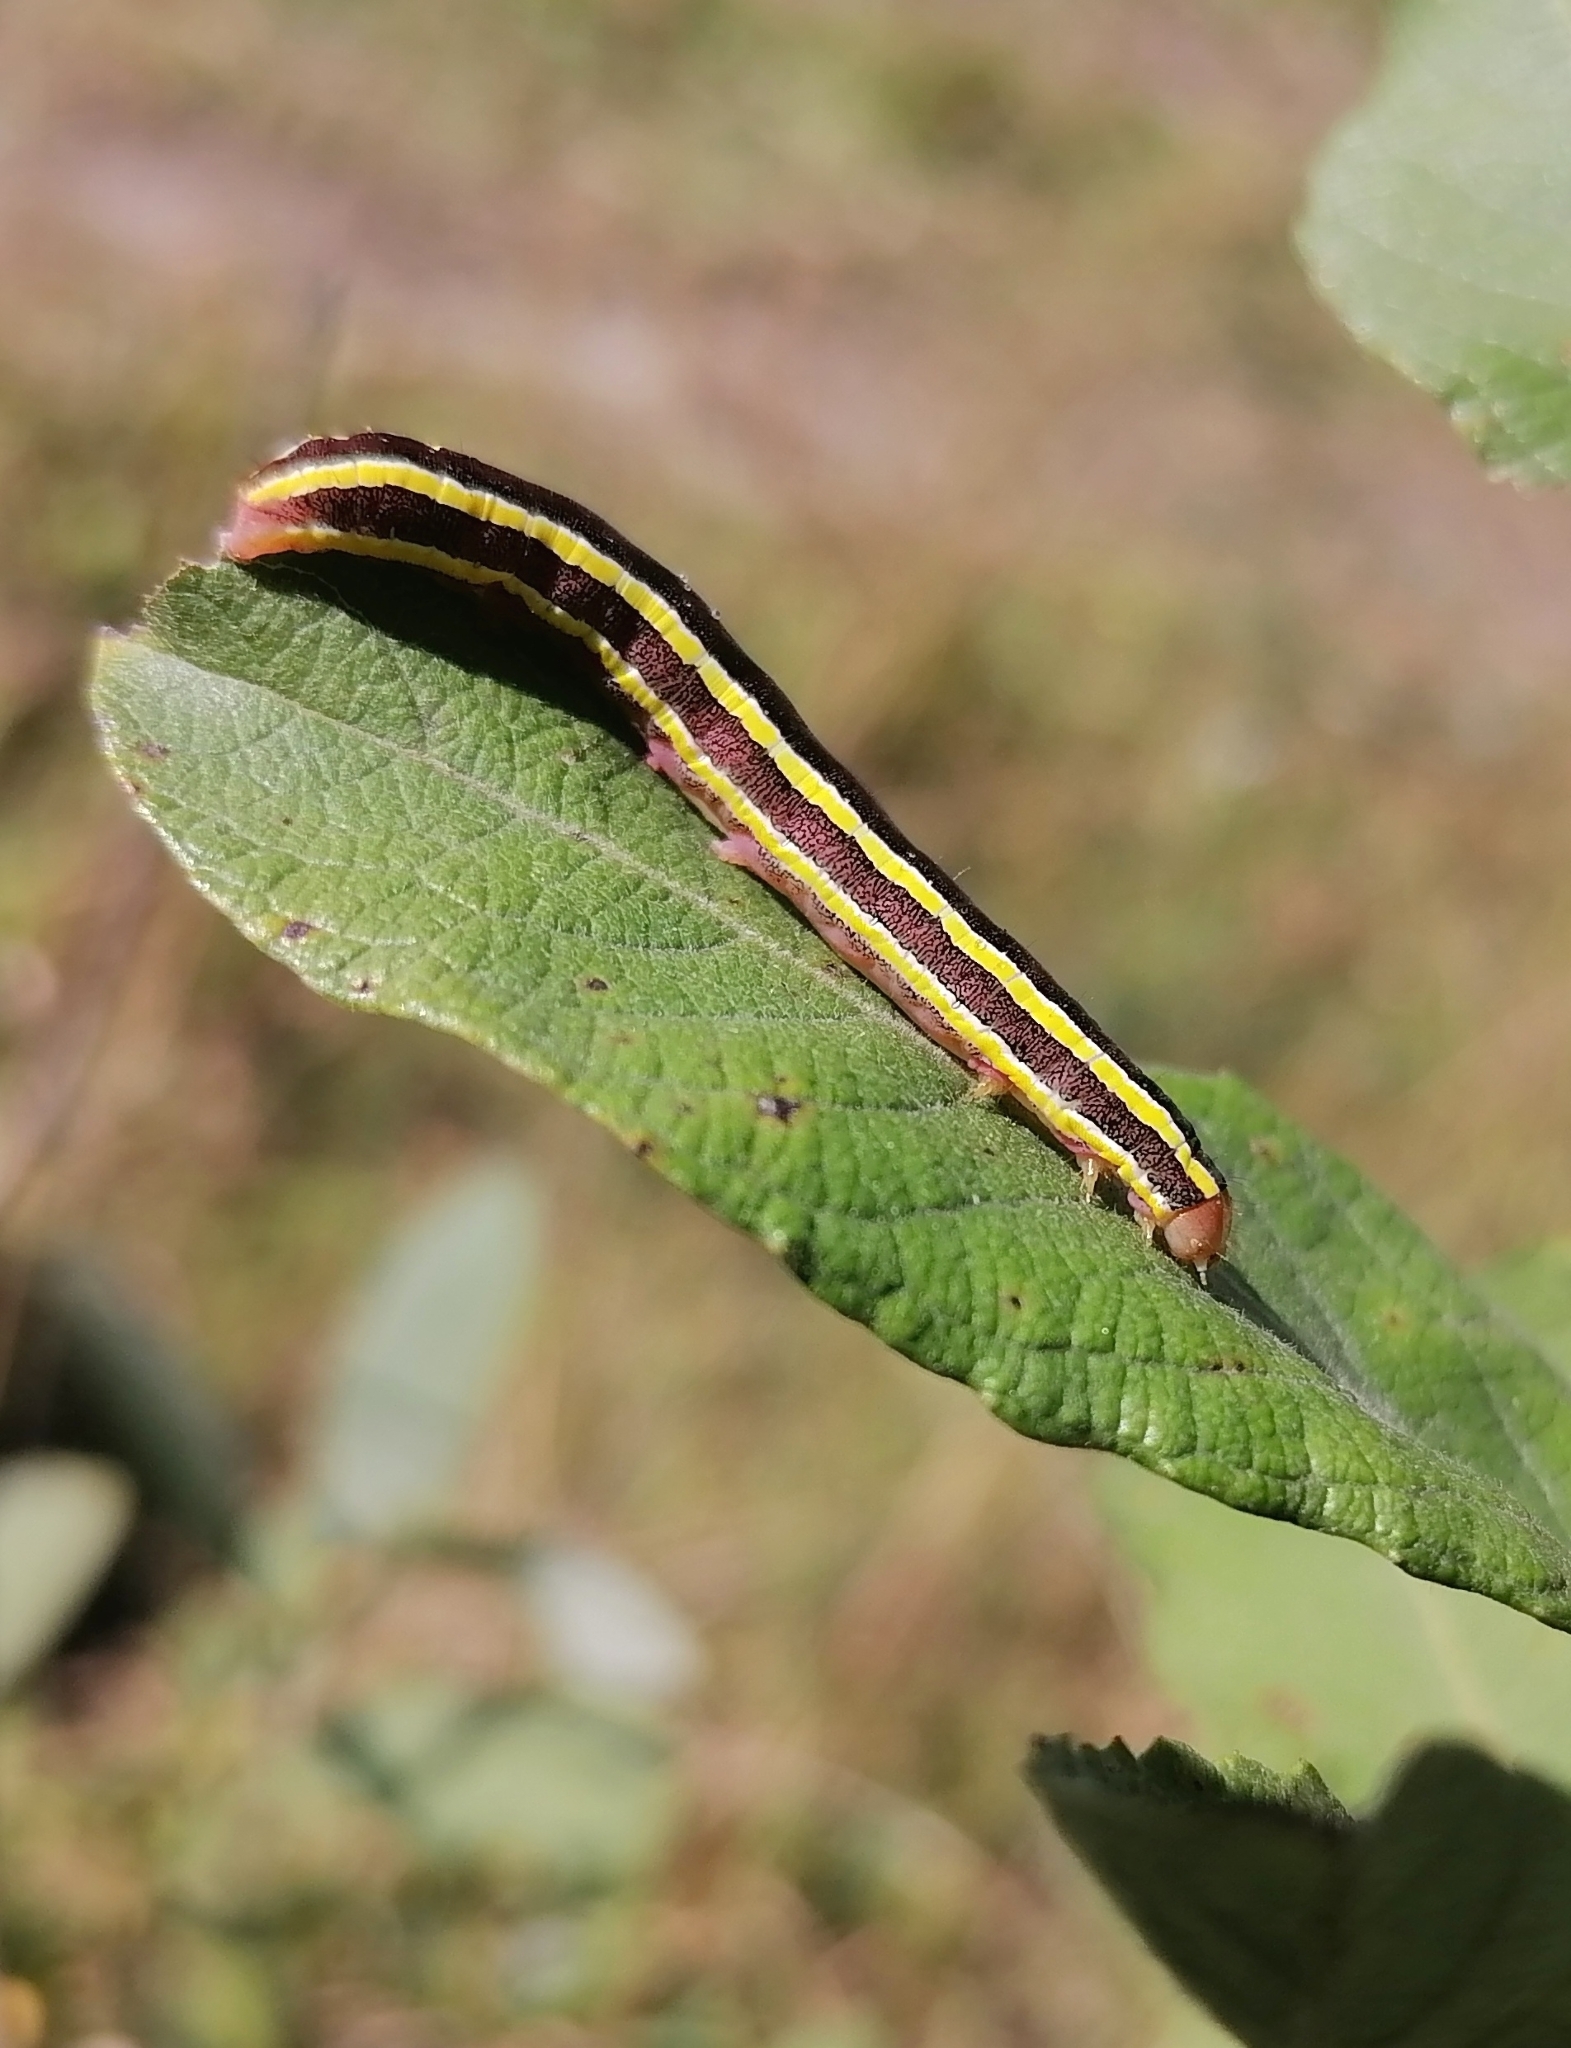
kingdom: Animalia
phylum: Arthropoda
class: Insecta
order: Lepidoptera
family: Noctuidae
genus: Ceramica
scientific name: Ceramica pisi
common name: Broom moth
